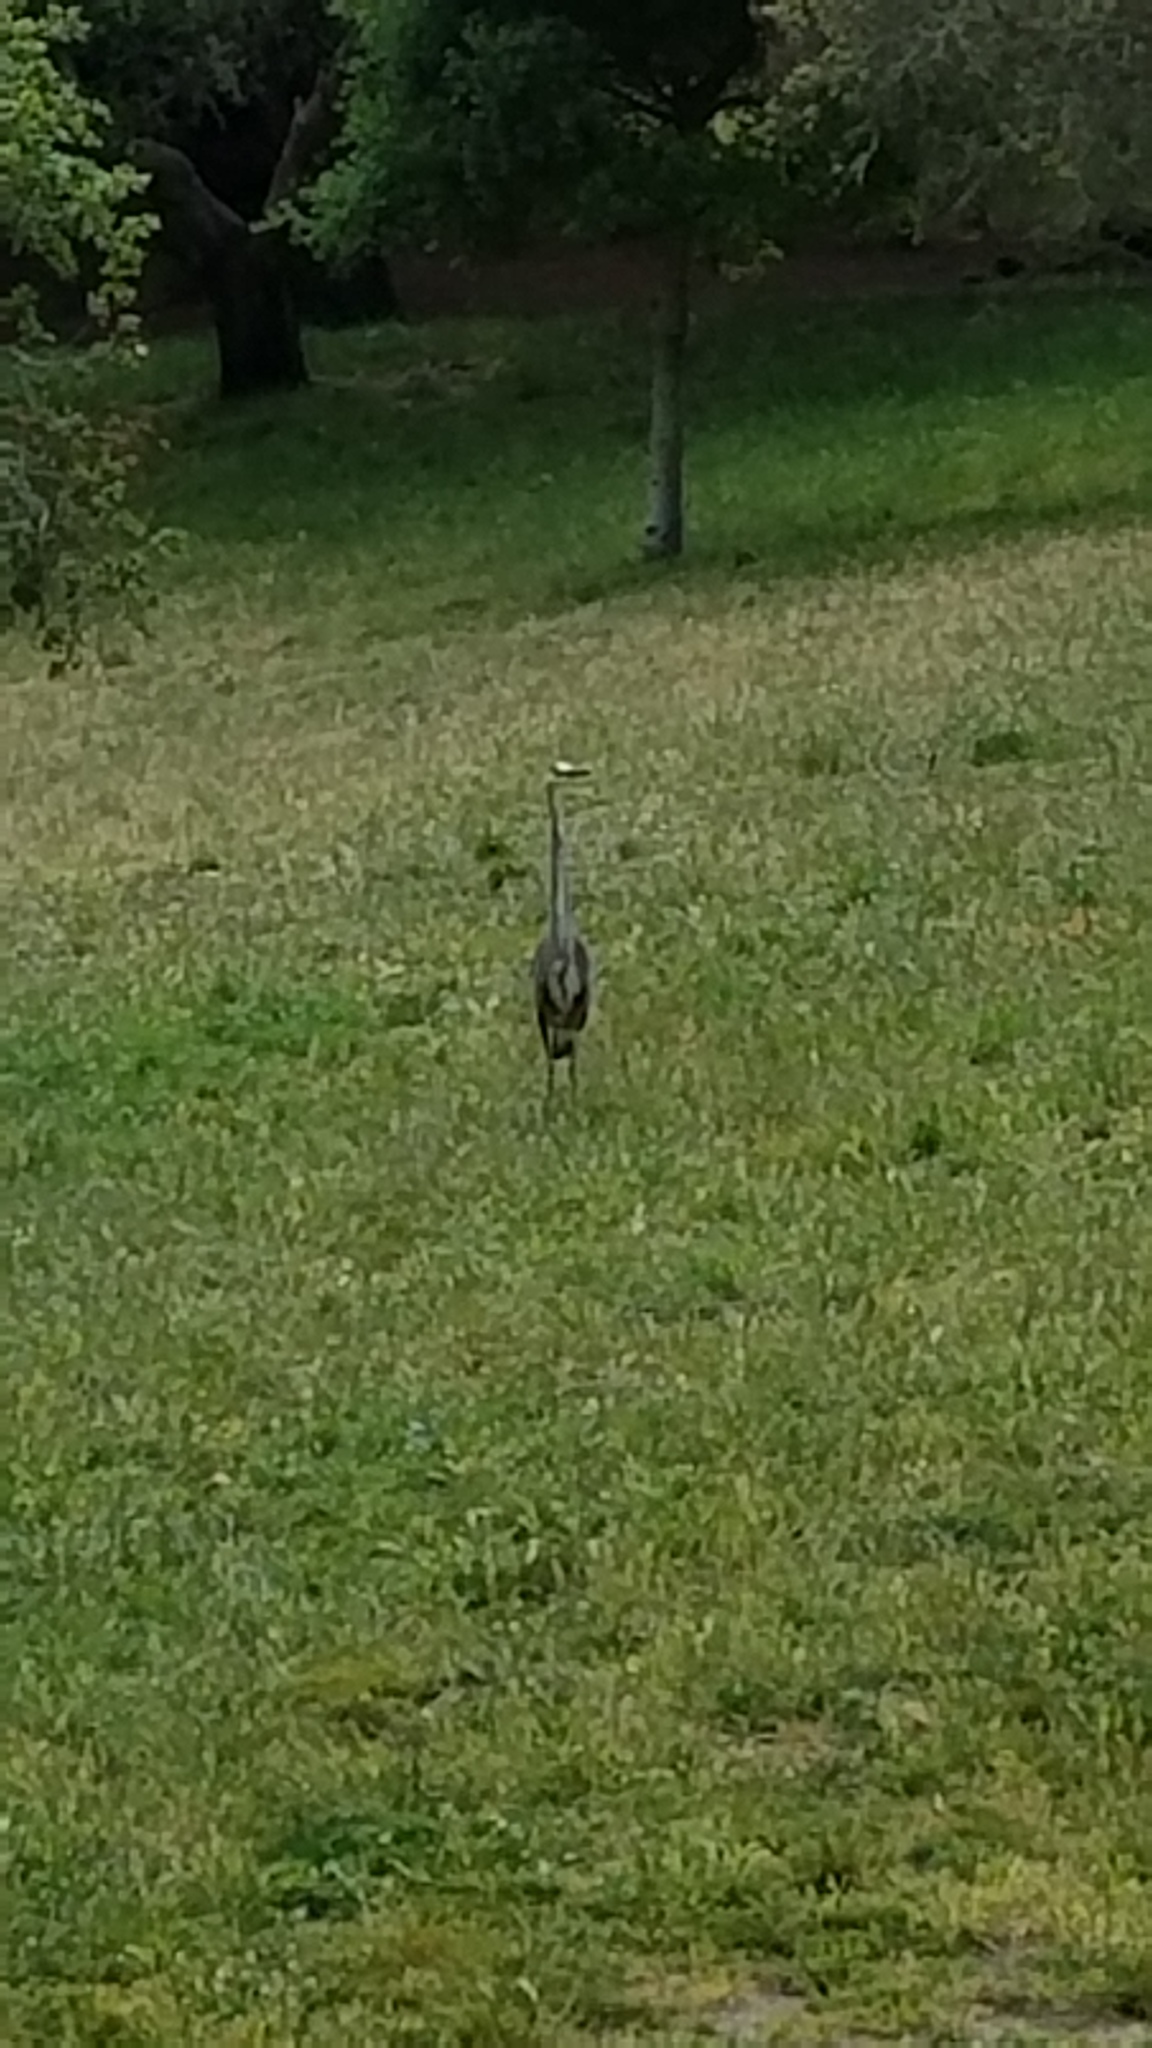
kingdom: Animalia
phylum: Chordata
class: Aves
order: Pelecaniformes
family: Ardeidae
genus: Ardea
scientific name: Ardea herodias
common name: Great blue heron
